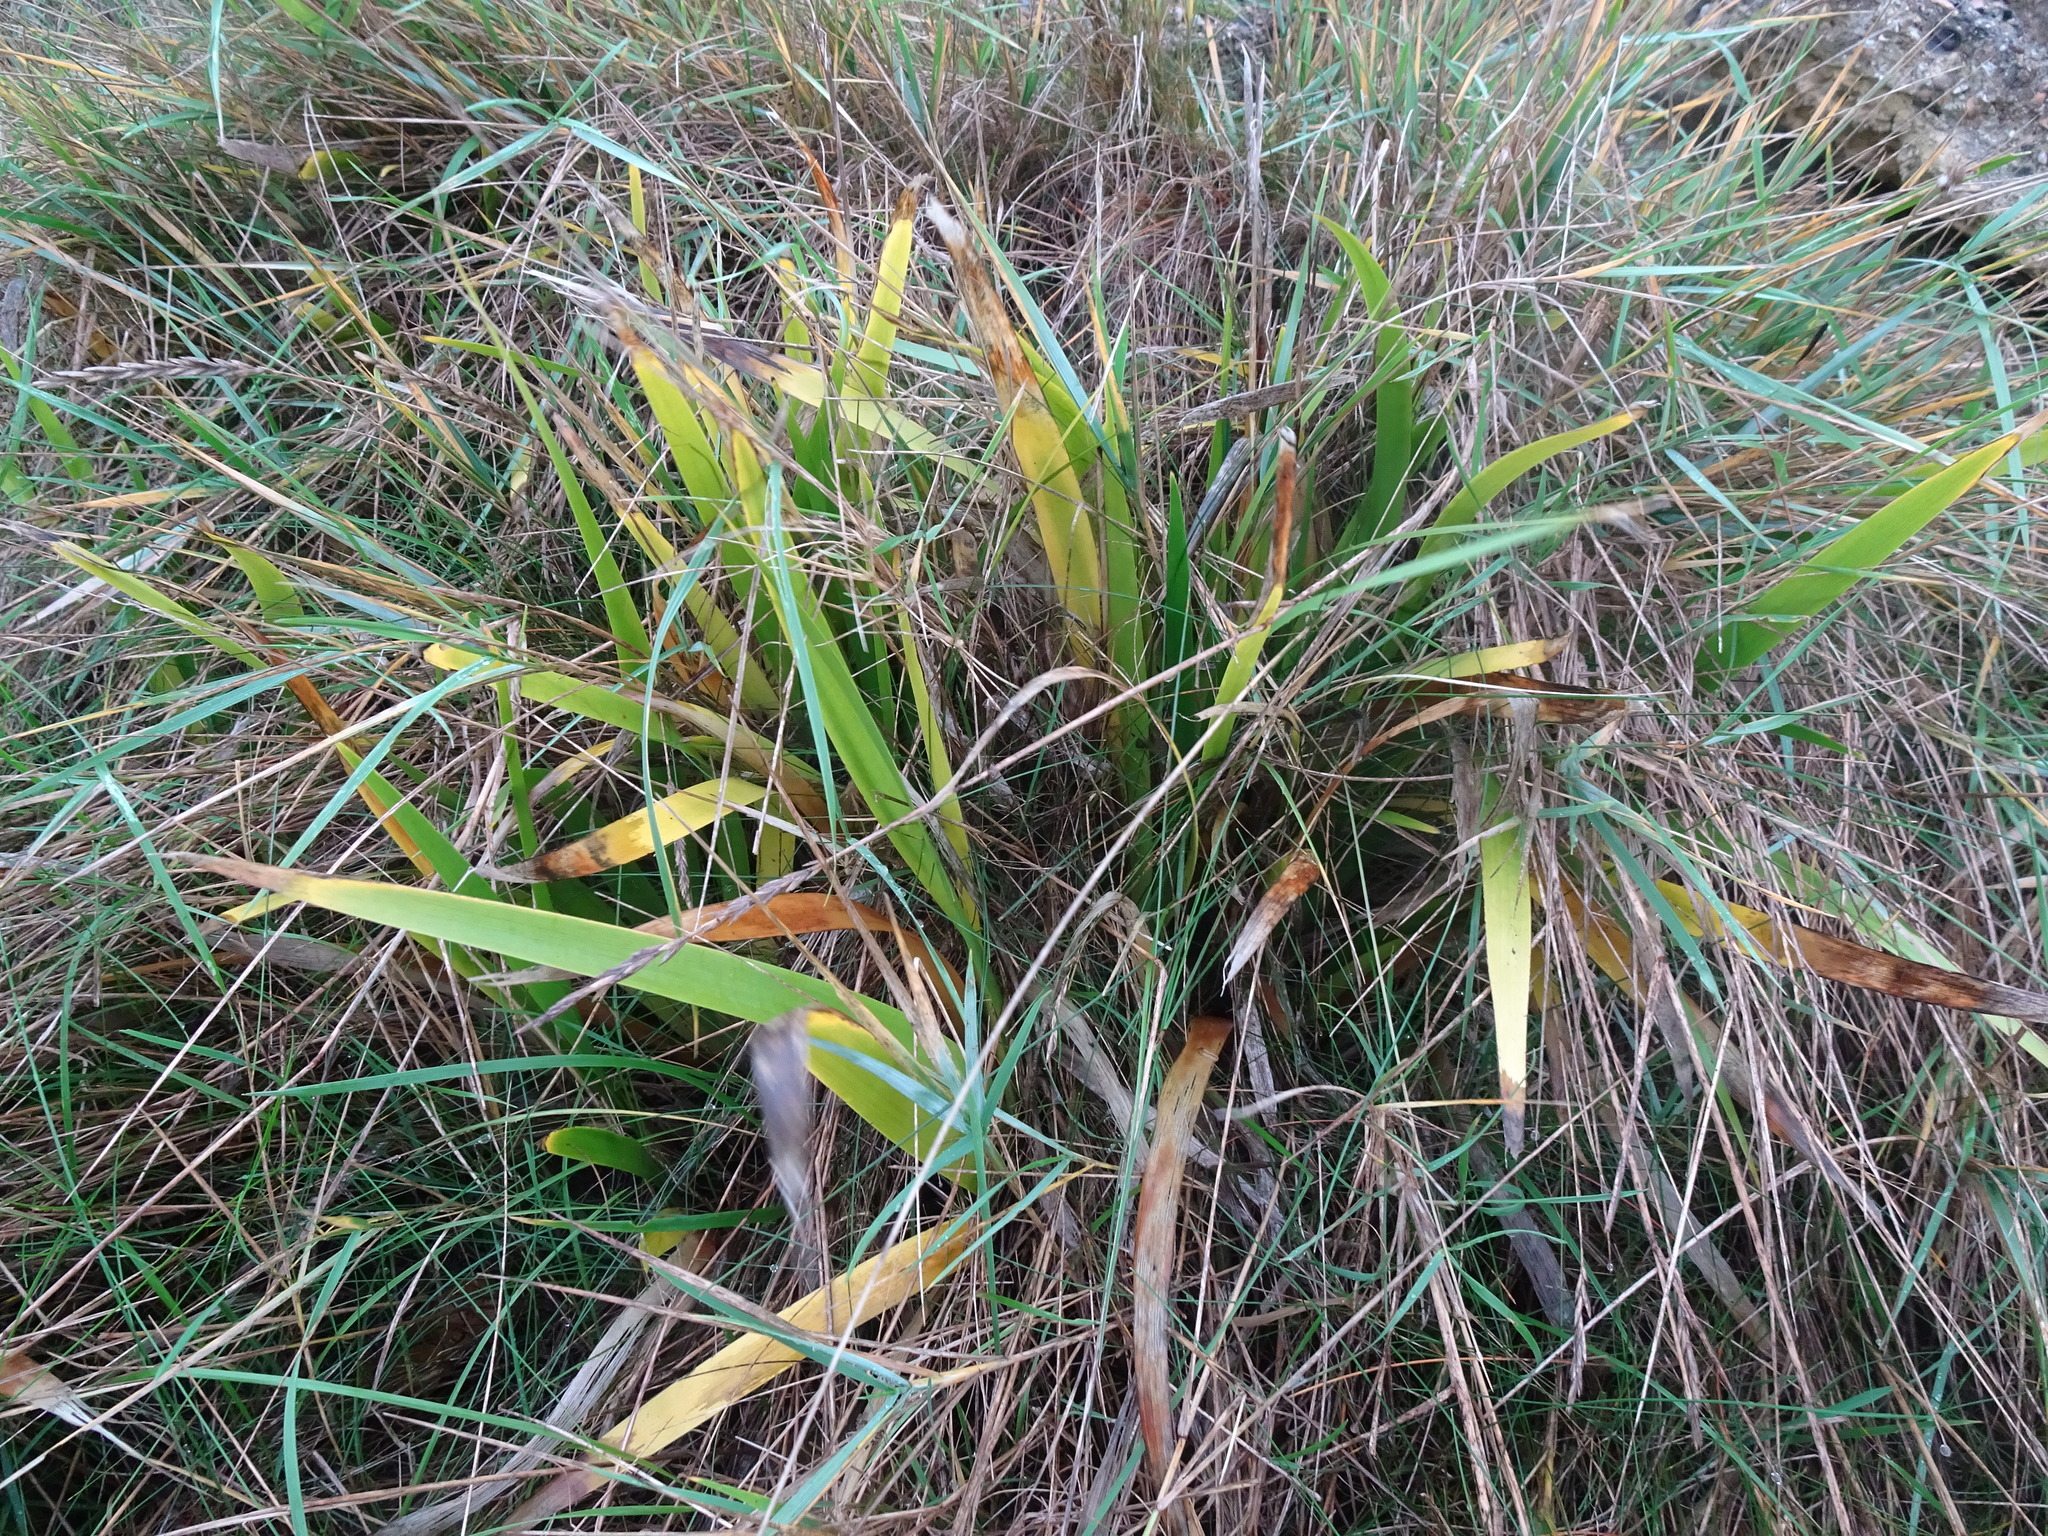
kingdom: Plantae
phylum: Tracheophyta
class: Liliopsida
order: Asparagales
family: Iridaceae
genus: Iris
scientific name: Iris foetidissima
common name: Stinking iris
